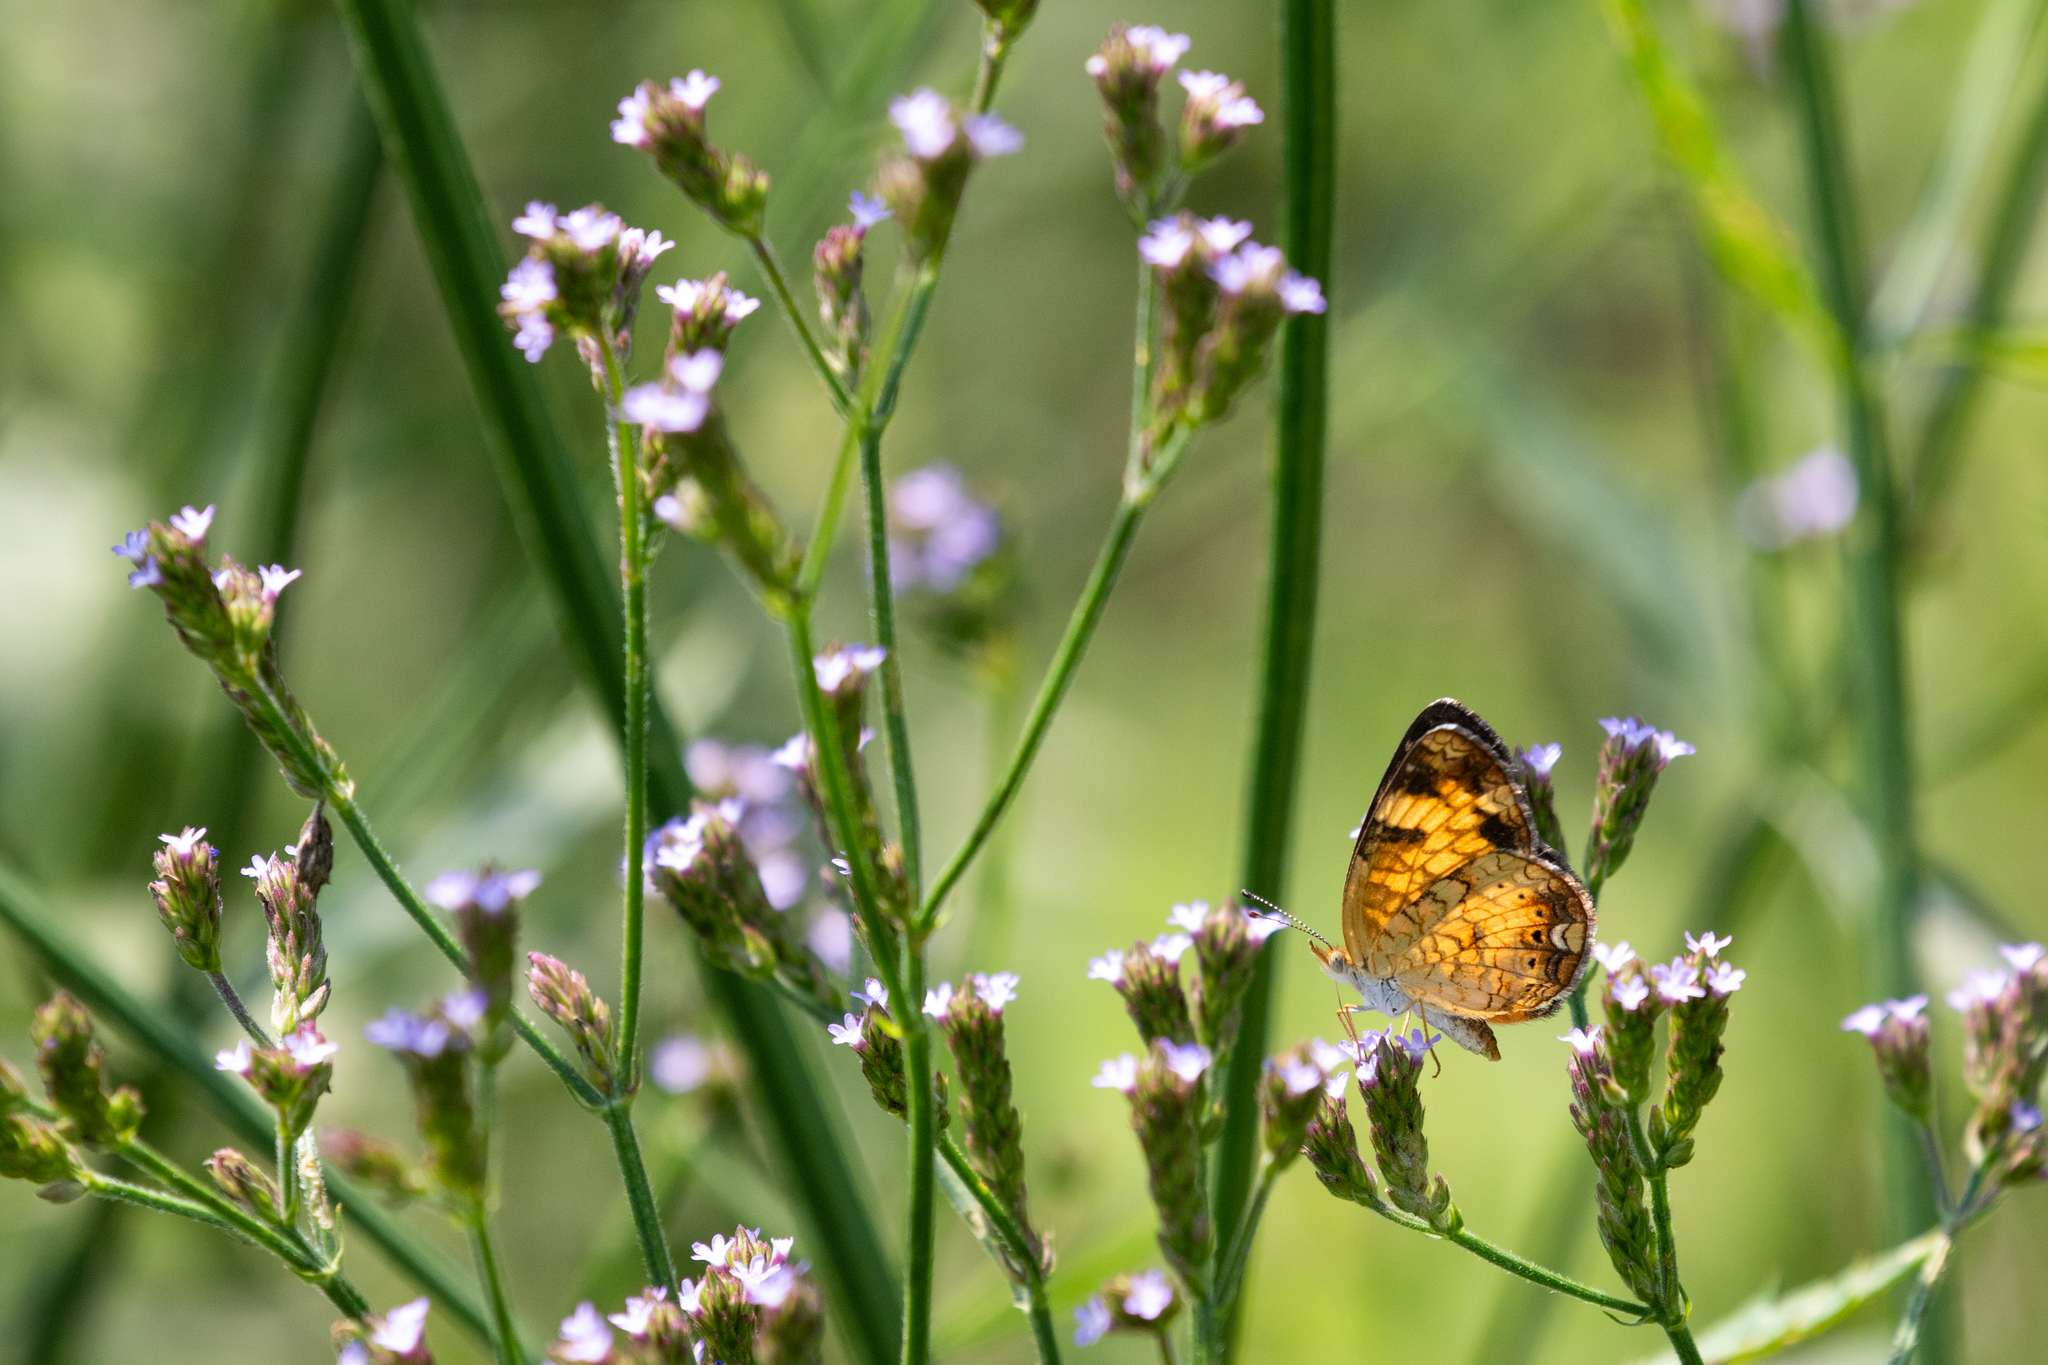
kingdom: Animalia
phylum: Arthropoda
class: Insecta
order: Lepidoptera
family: Nymphalidae
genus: Phyciodes
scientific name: Phyciodes tharos
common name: Pearl crescent
